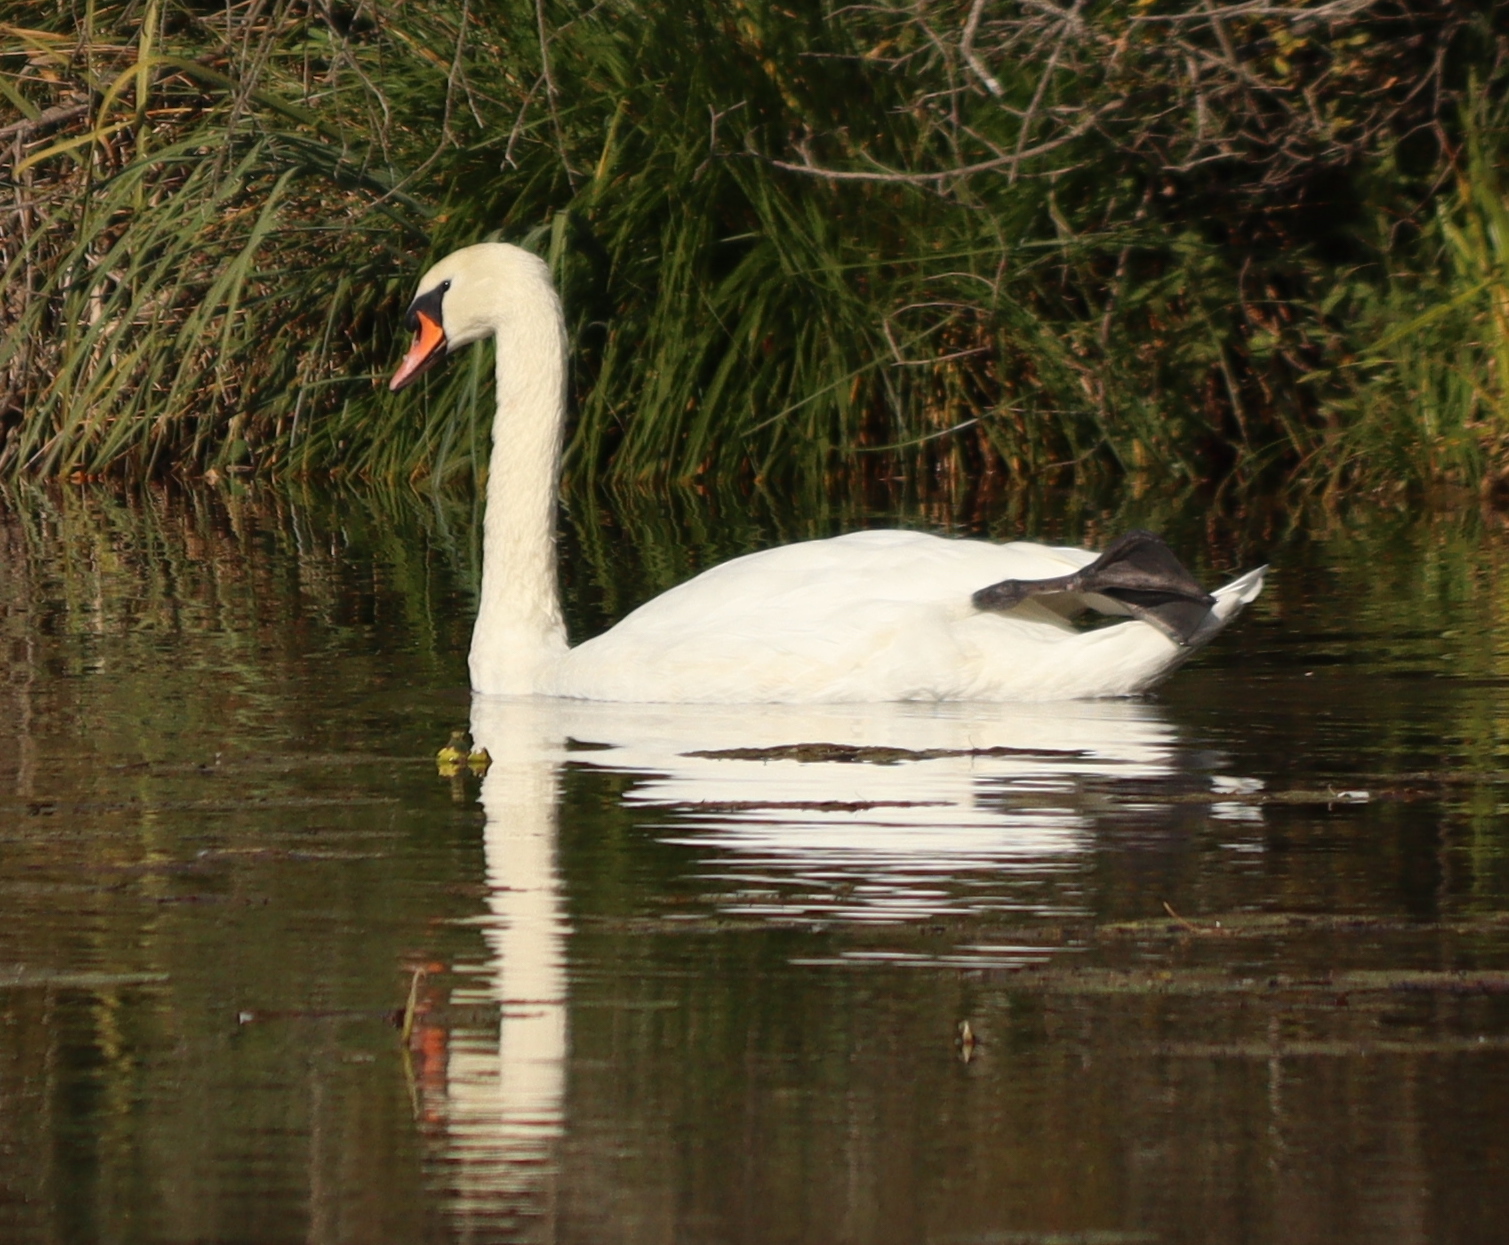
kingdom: Animalia
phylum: Chordata
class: Aves
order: Anseriformes
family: Anatidae
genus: Cygnus
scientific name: Cygnus olor
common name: Mute swan
